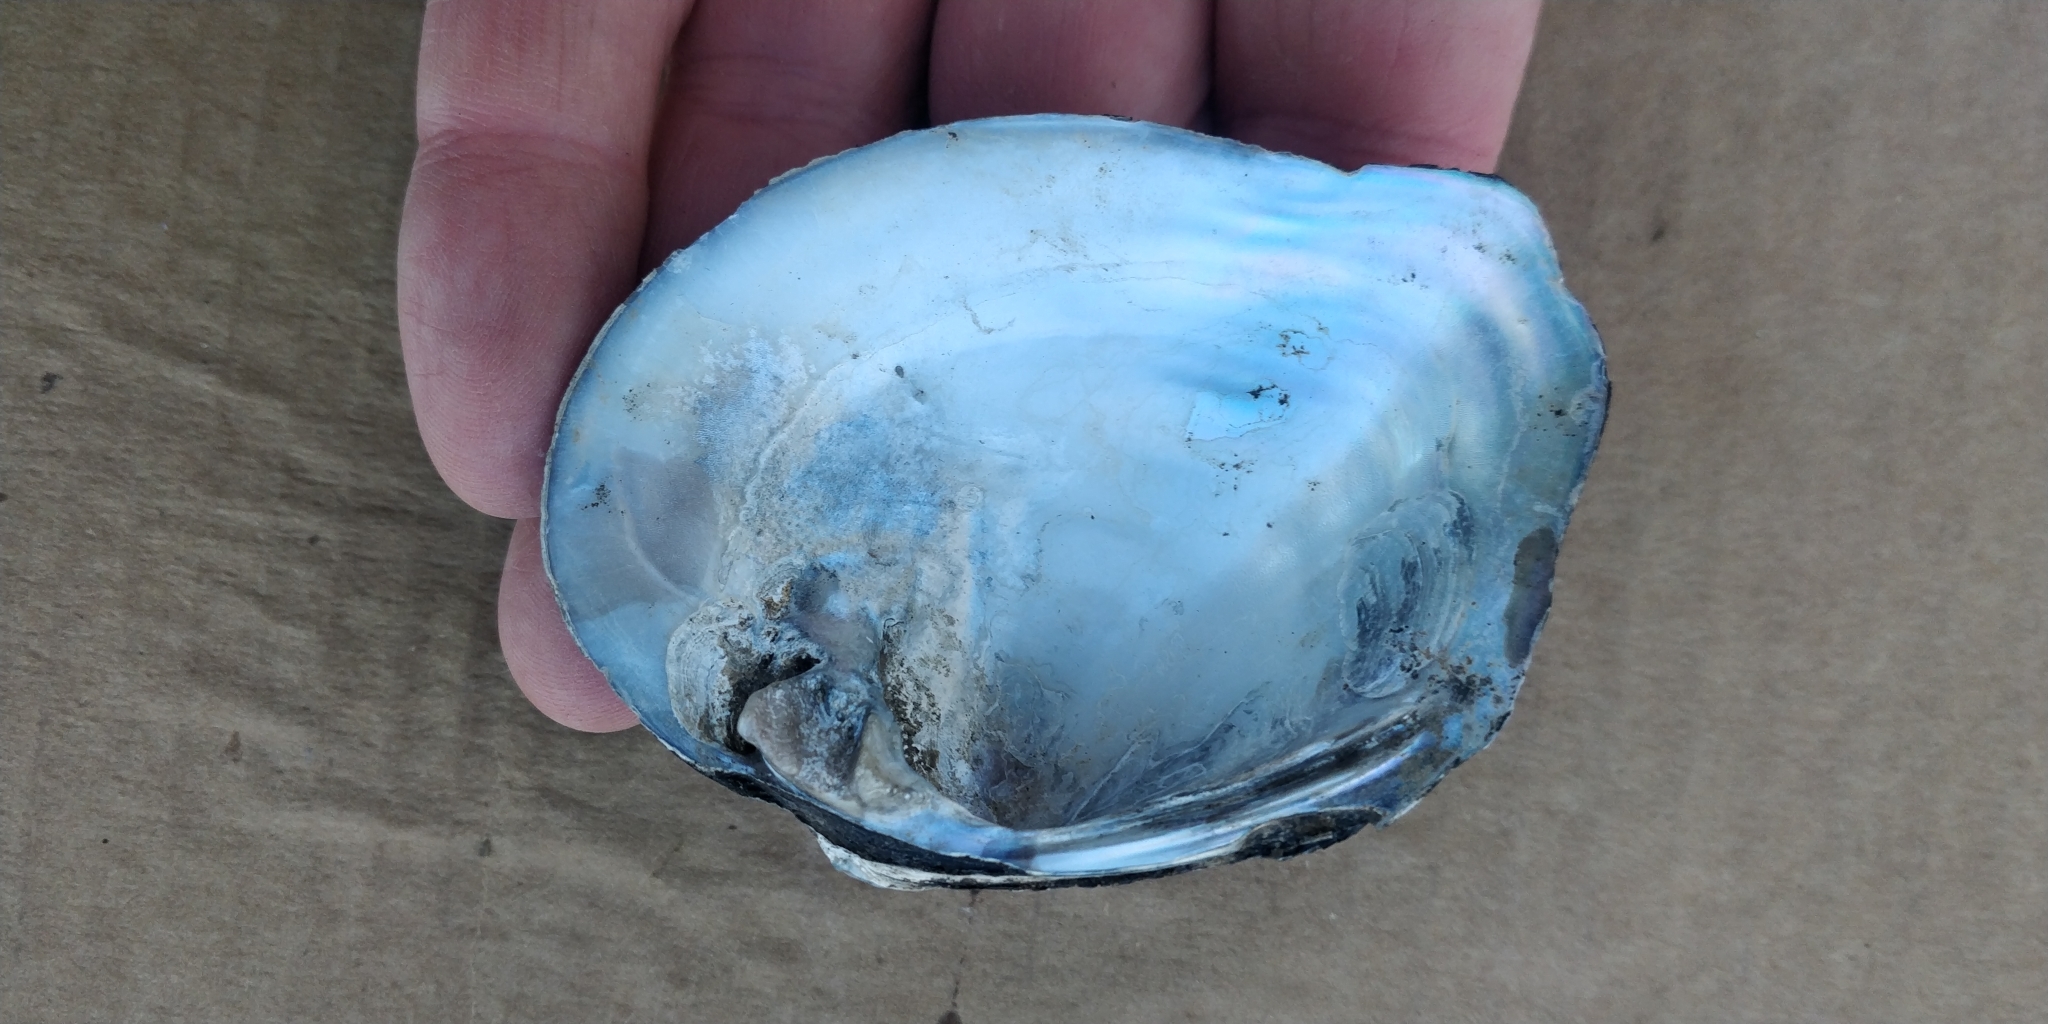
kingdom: Animalia
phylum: Mollusca
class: Bivalvia
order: Unionida
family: Unionidae
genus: Quadrula
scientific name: Quadrula quadrula
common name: Mapleleaf
